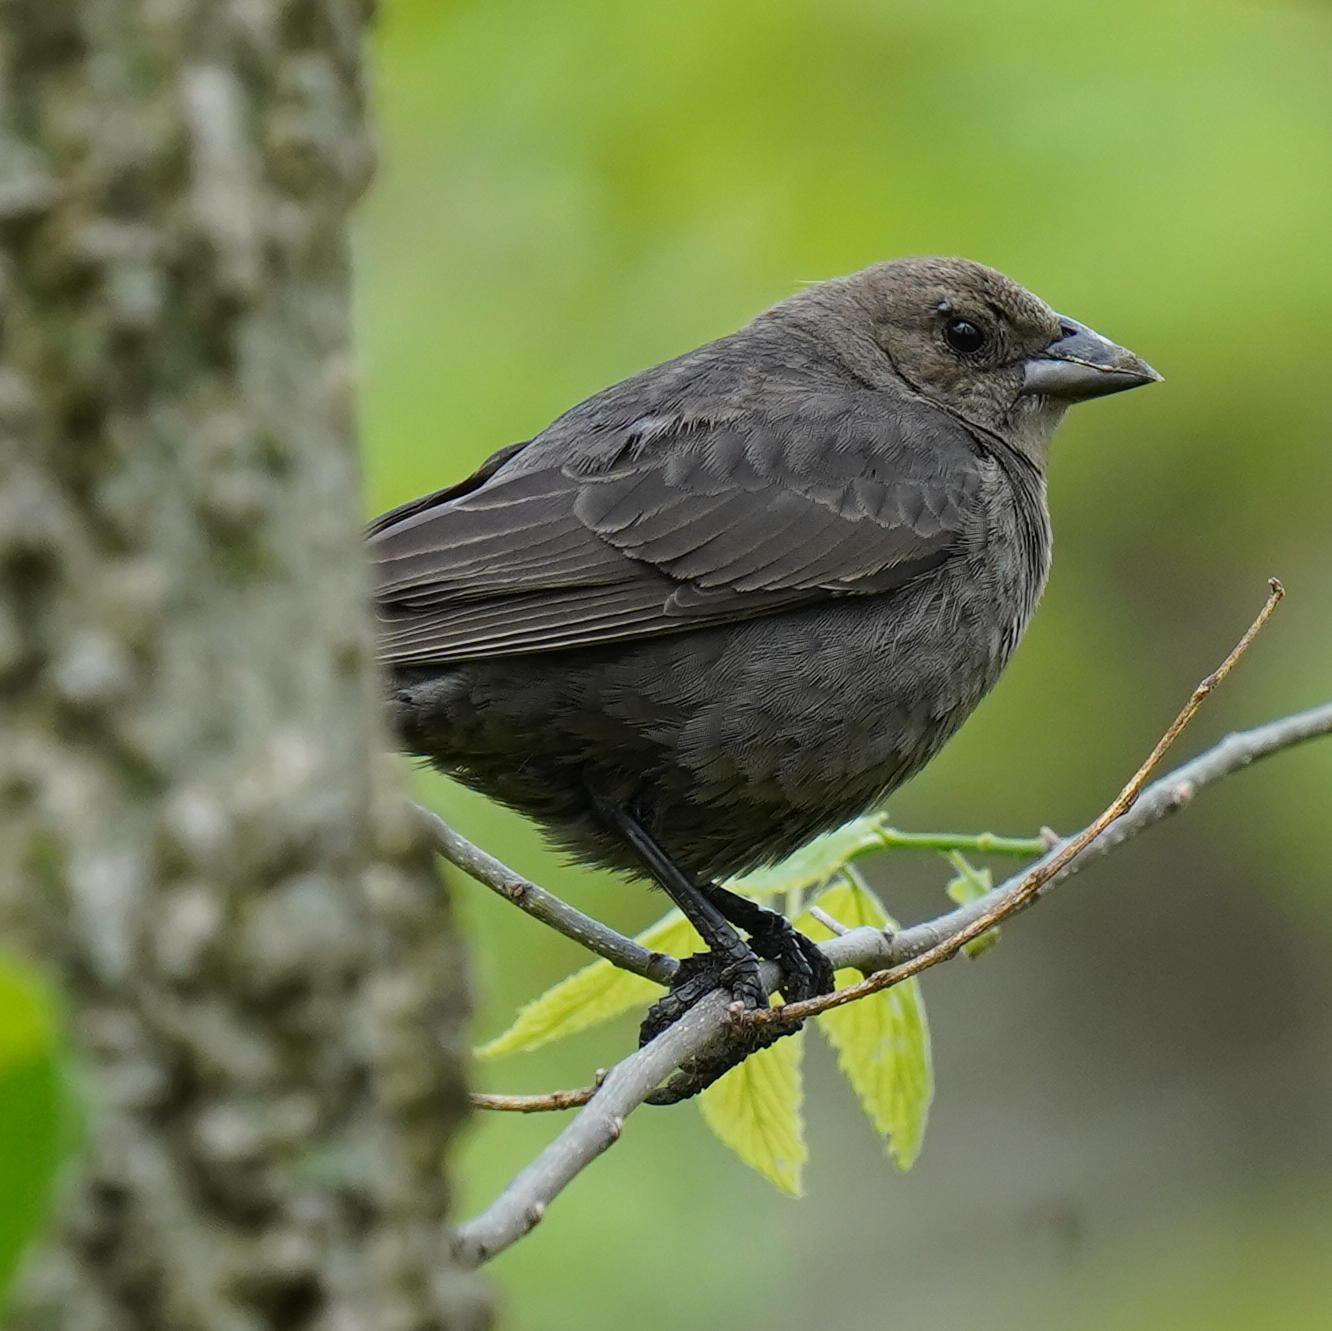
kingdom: Animalia
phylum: Chordata
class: Aves
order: Passeriformes
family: Icteridae
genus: Molothrus
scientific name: Molothrus ater
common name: Brown-headed cowbird
